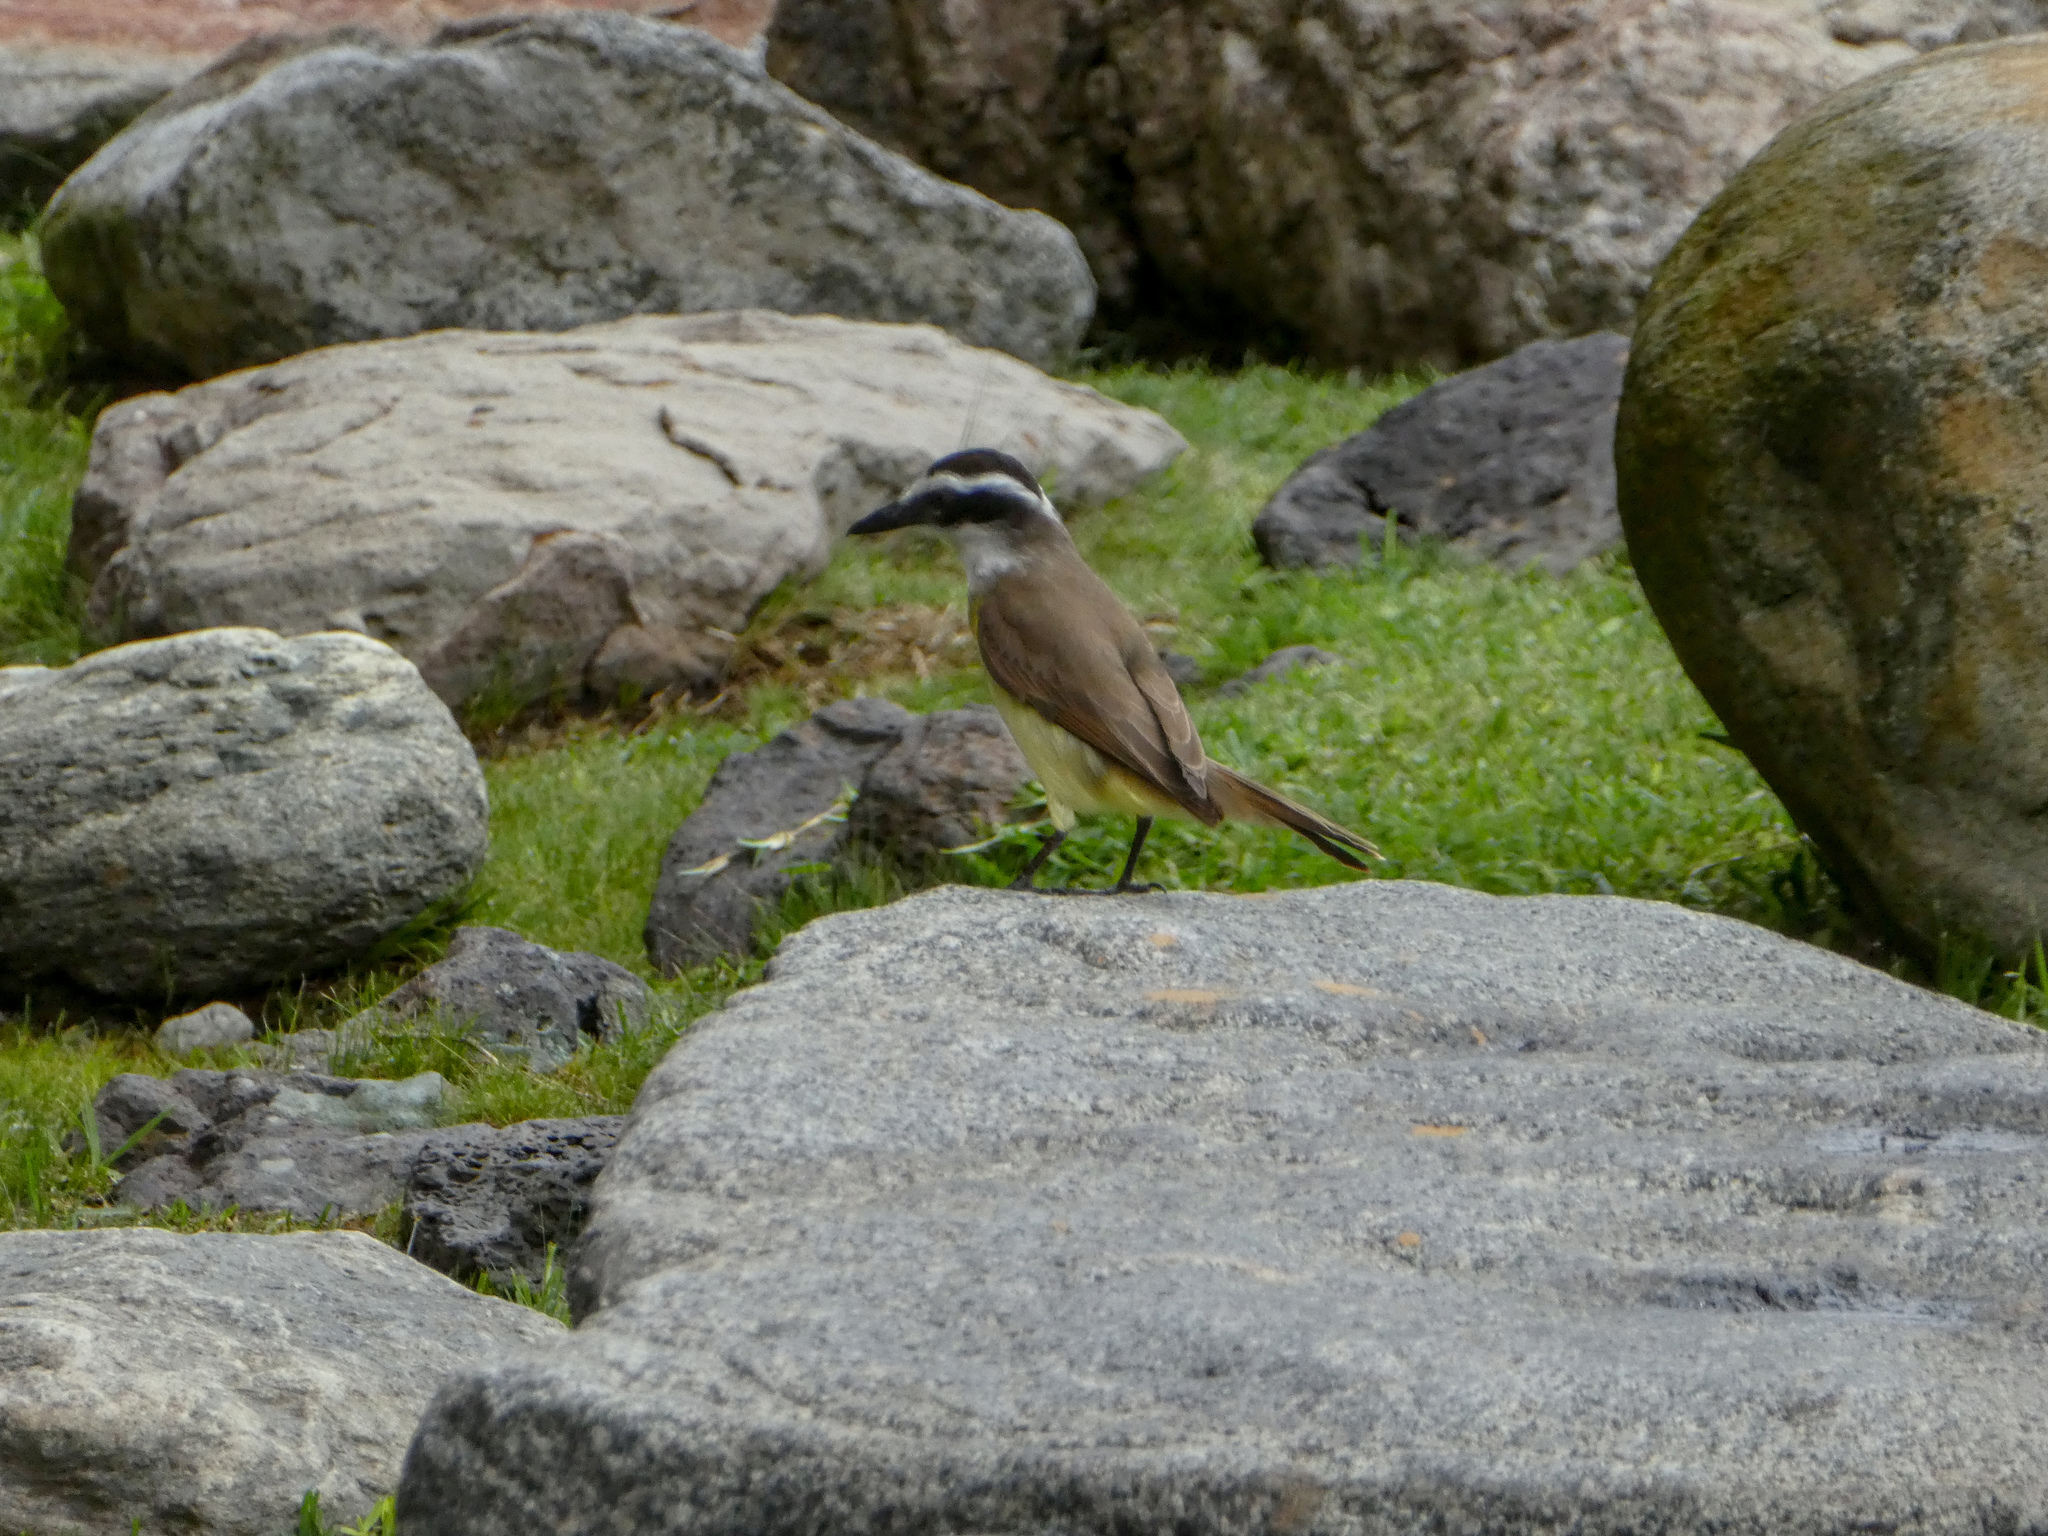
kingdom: Animalia
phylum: Chordata
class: Aves
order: Passeriformes
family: Tyrannidae
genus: Pitangus
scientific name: Pitangus sulphuratus
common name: Great kiskadee
